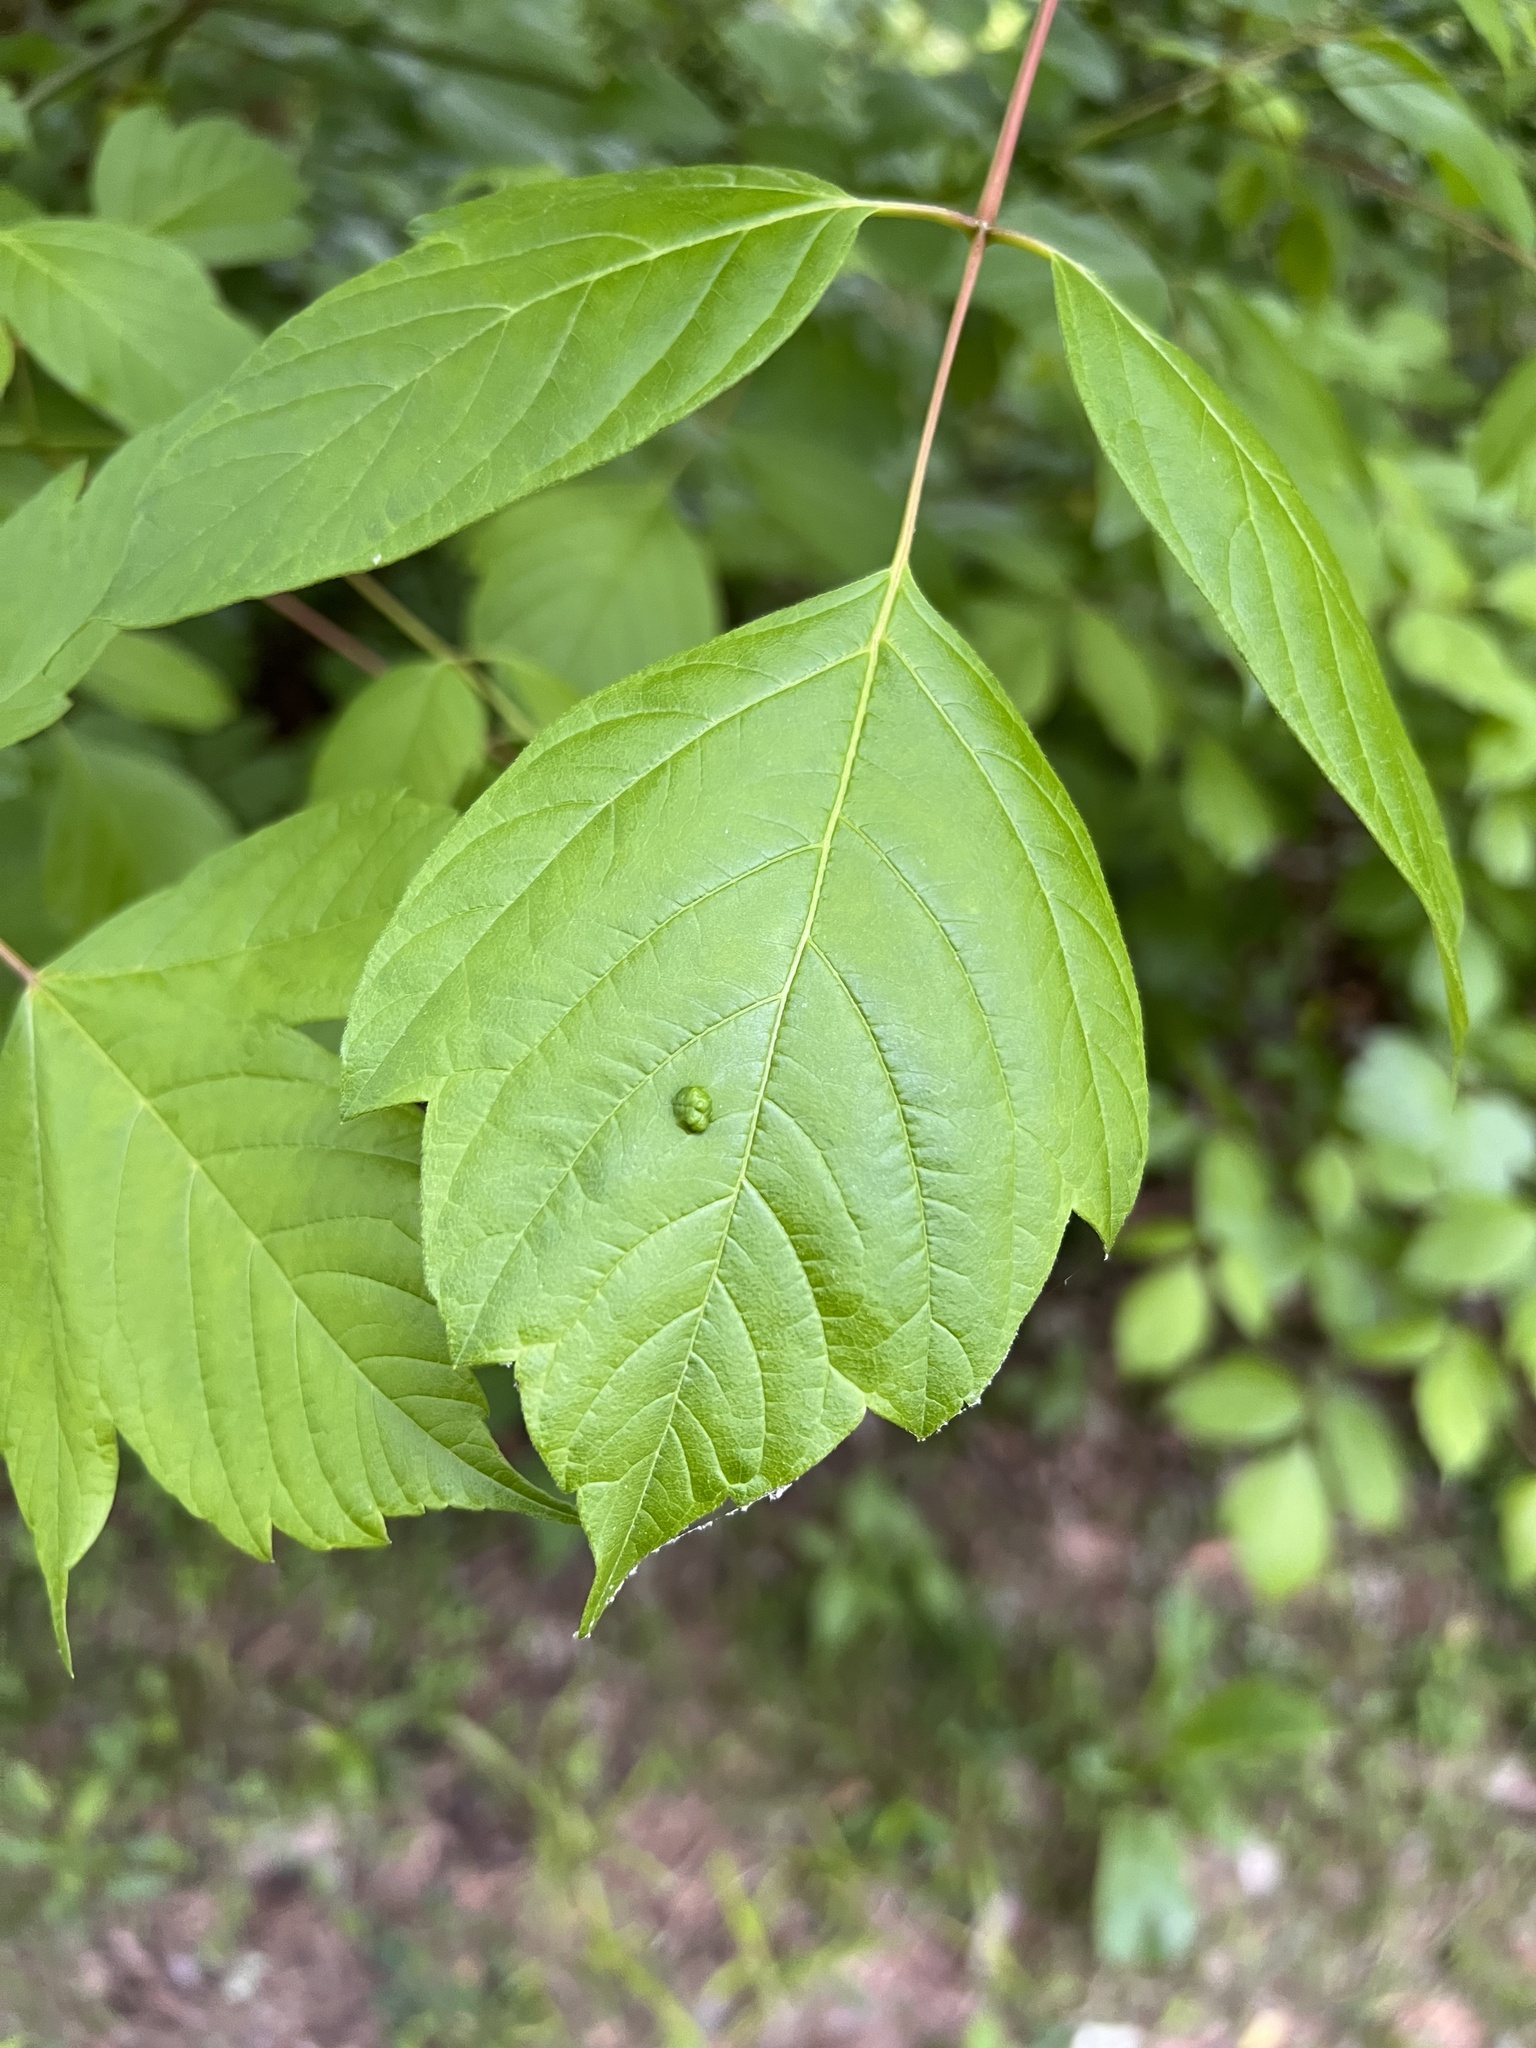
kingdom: Animalia
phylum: Arthropoda
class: Arachnida
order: Trombidiformes
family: Eriophyidae
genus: Aceria
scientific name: Aceria
